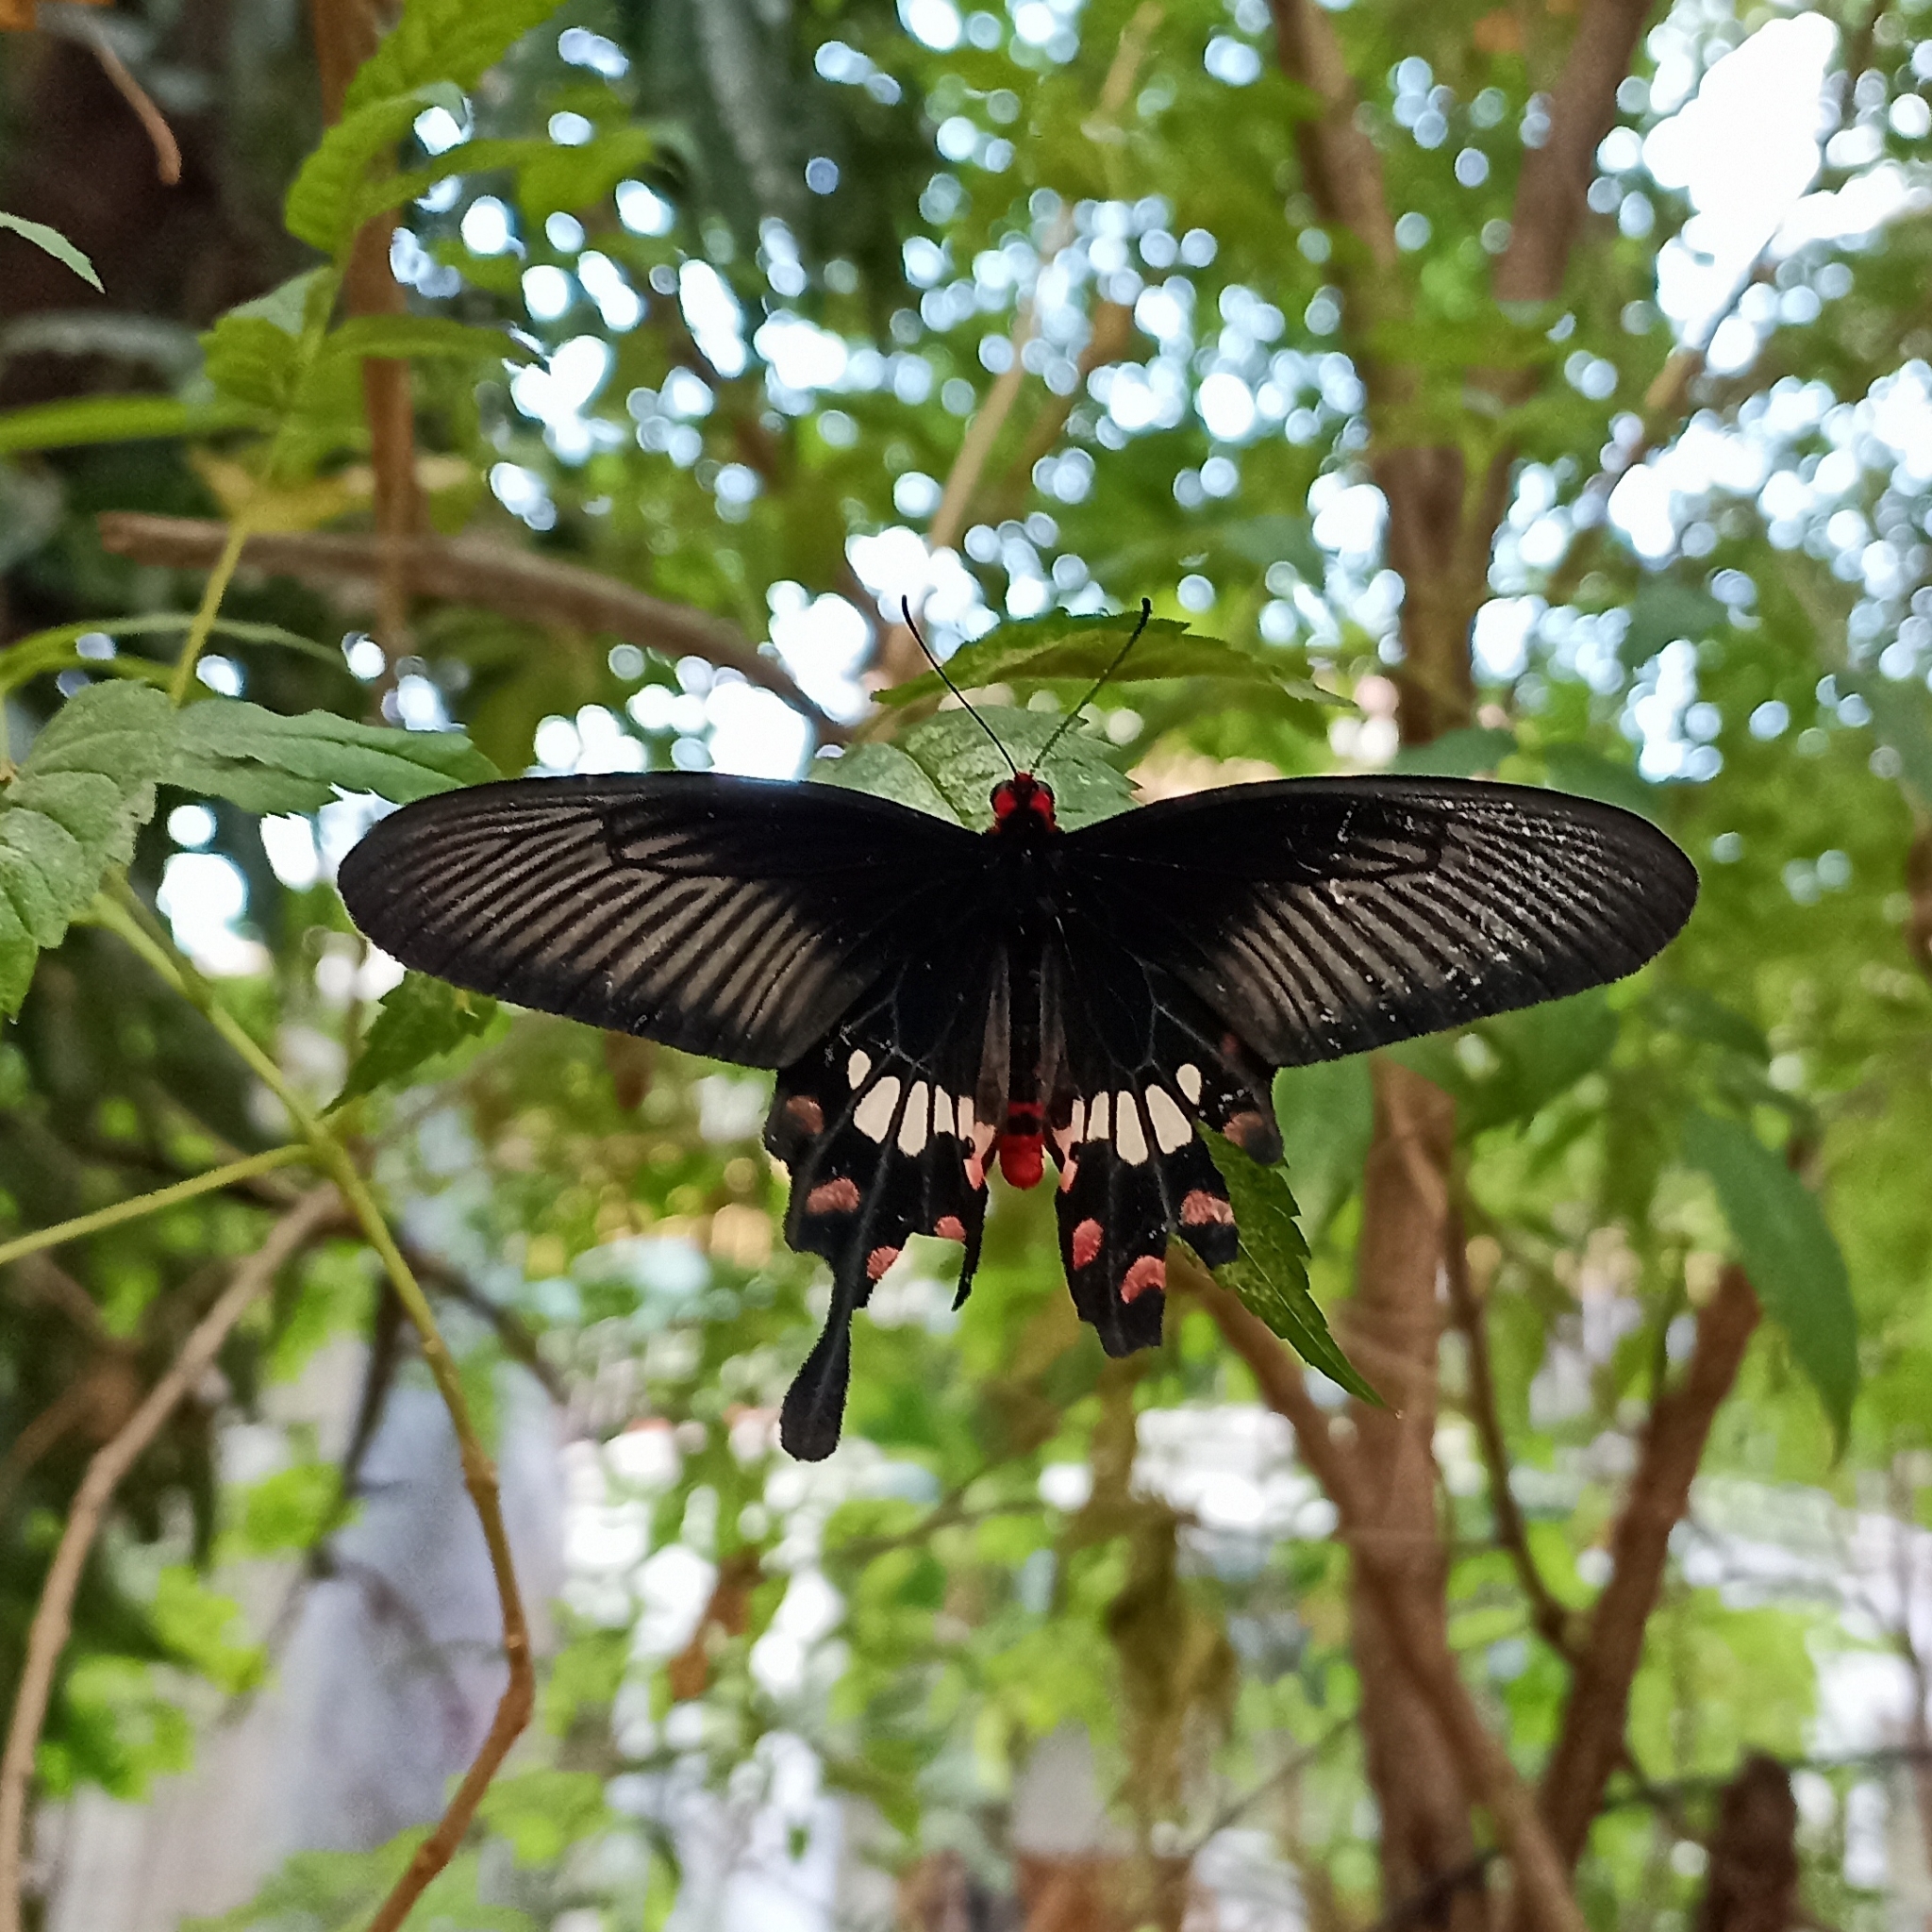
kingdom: Animalia
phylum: Arthropoda
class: Insecta
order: Lepidoptera
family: Papilionidae
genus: Pachliopta
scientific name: Pachliopta aristolochiae
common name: Common rose
